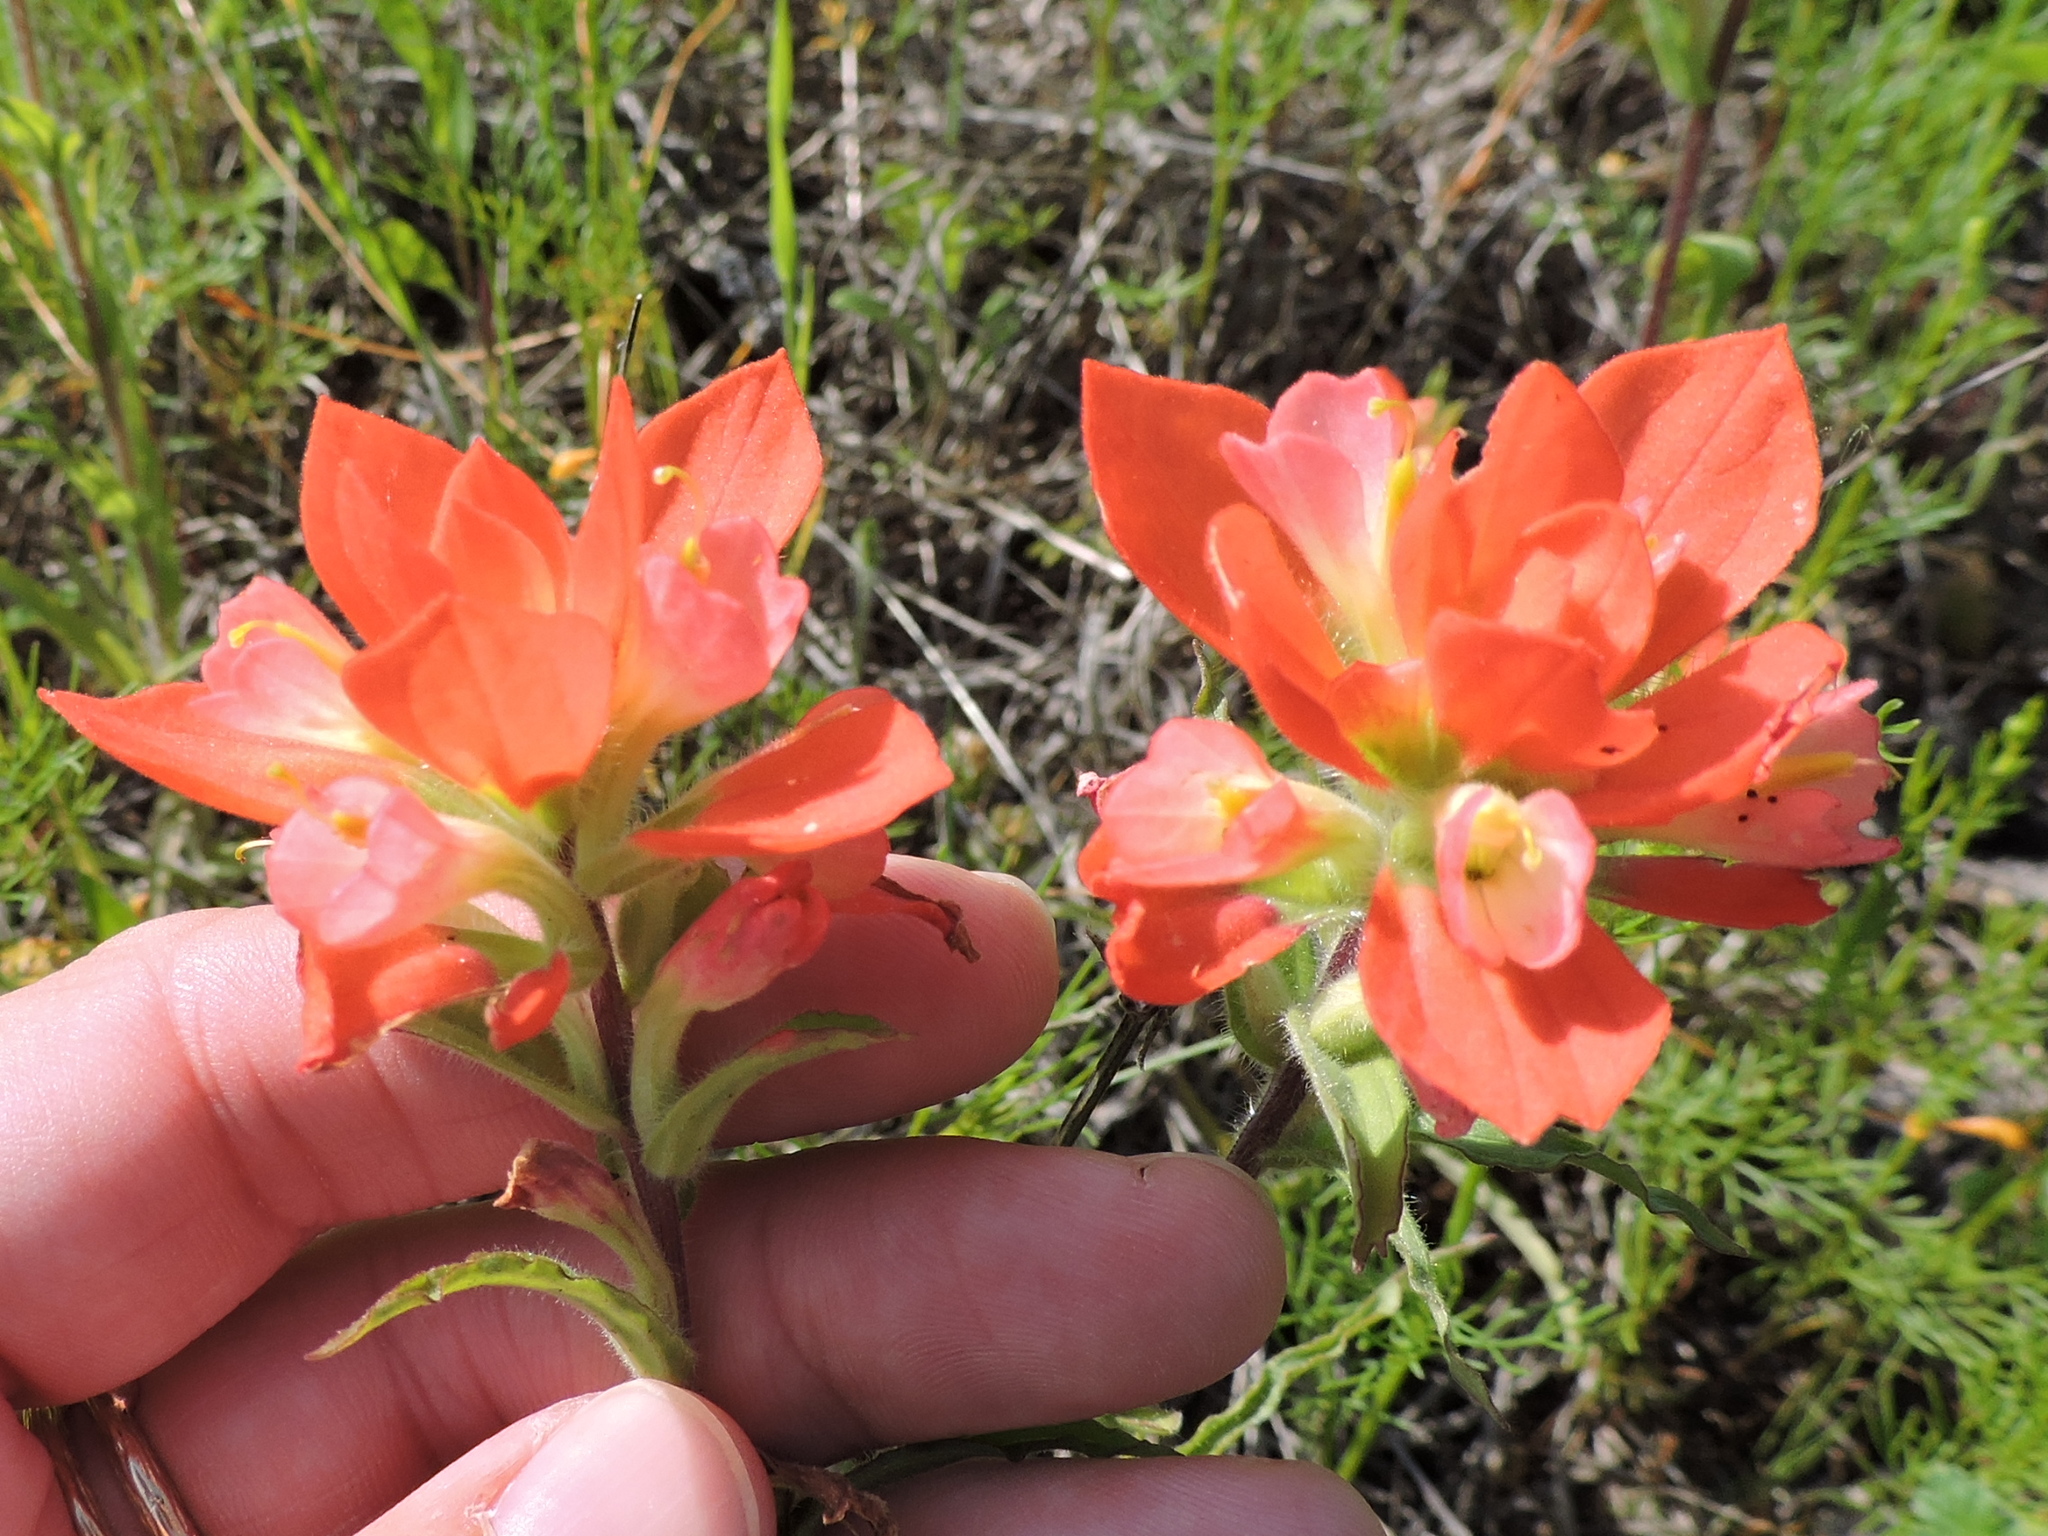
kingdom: Plantae
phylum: Tracheophyta
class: Magnoliopsida
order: Lamiales
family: Orobanchaceae
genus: Castilleja
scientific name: Castilleja indivisa
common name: Texas paintbrush
